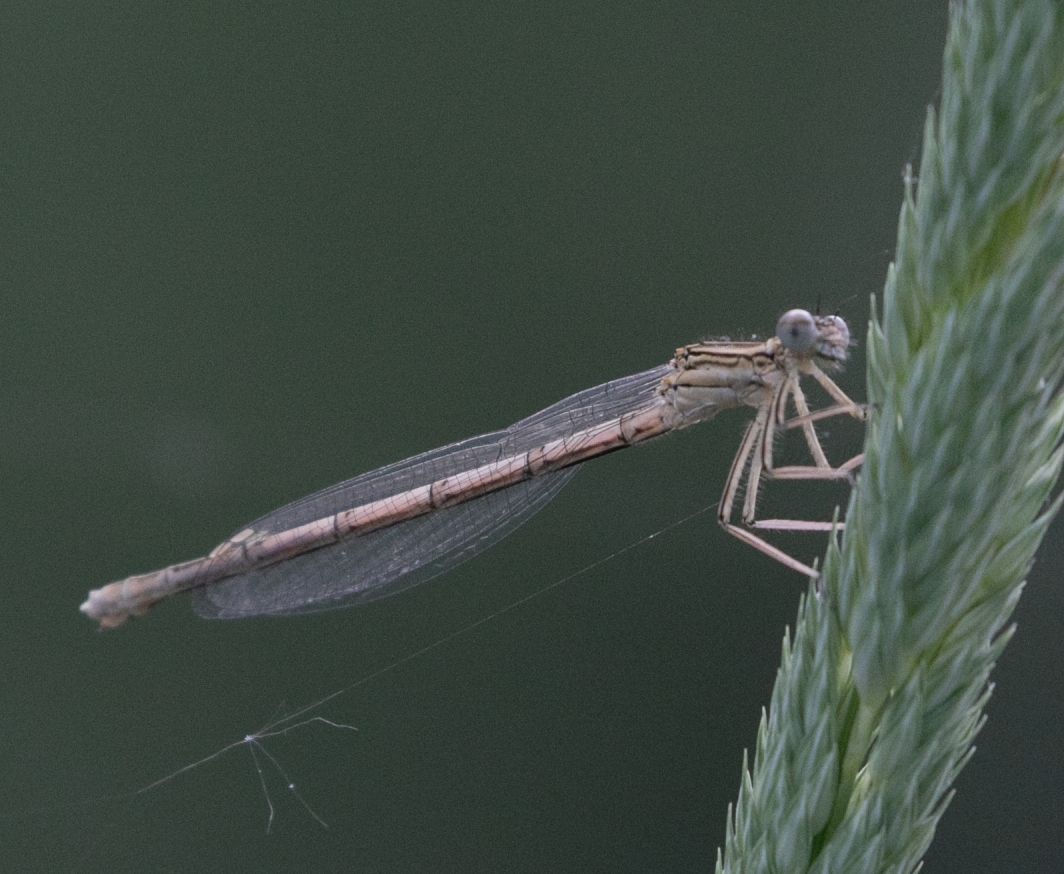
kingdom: Animalia
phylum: Arthropoda
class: Insecta
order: Odonata
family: Platycnemididae
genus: Platycnemis
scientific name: Platycnemis pennipes
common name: White-legged damselfly
